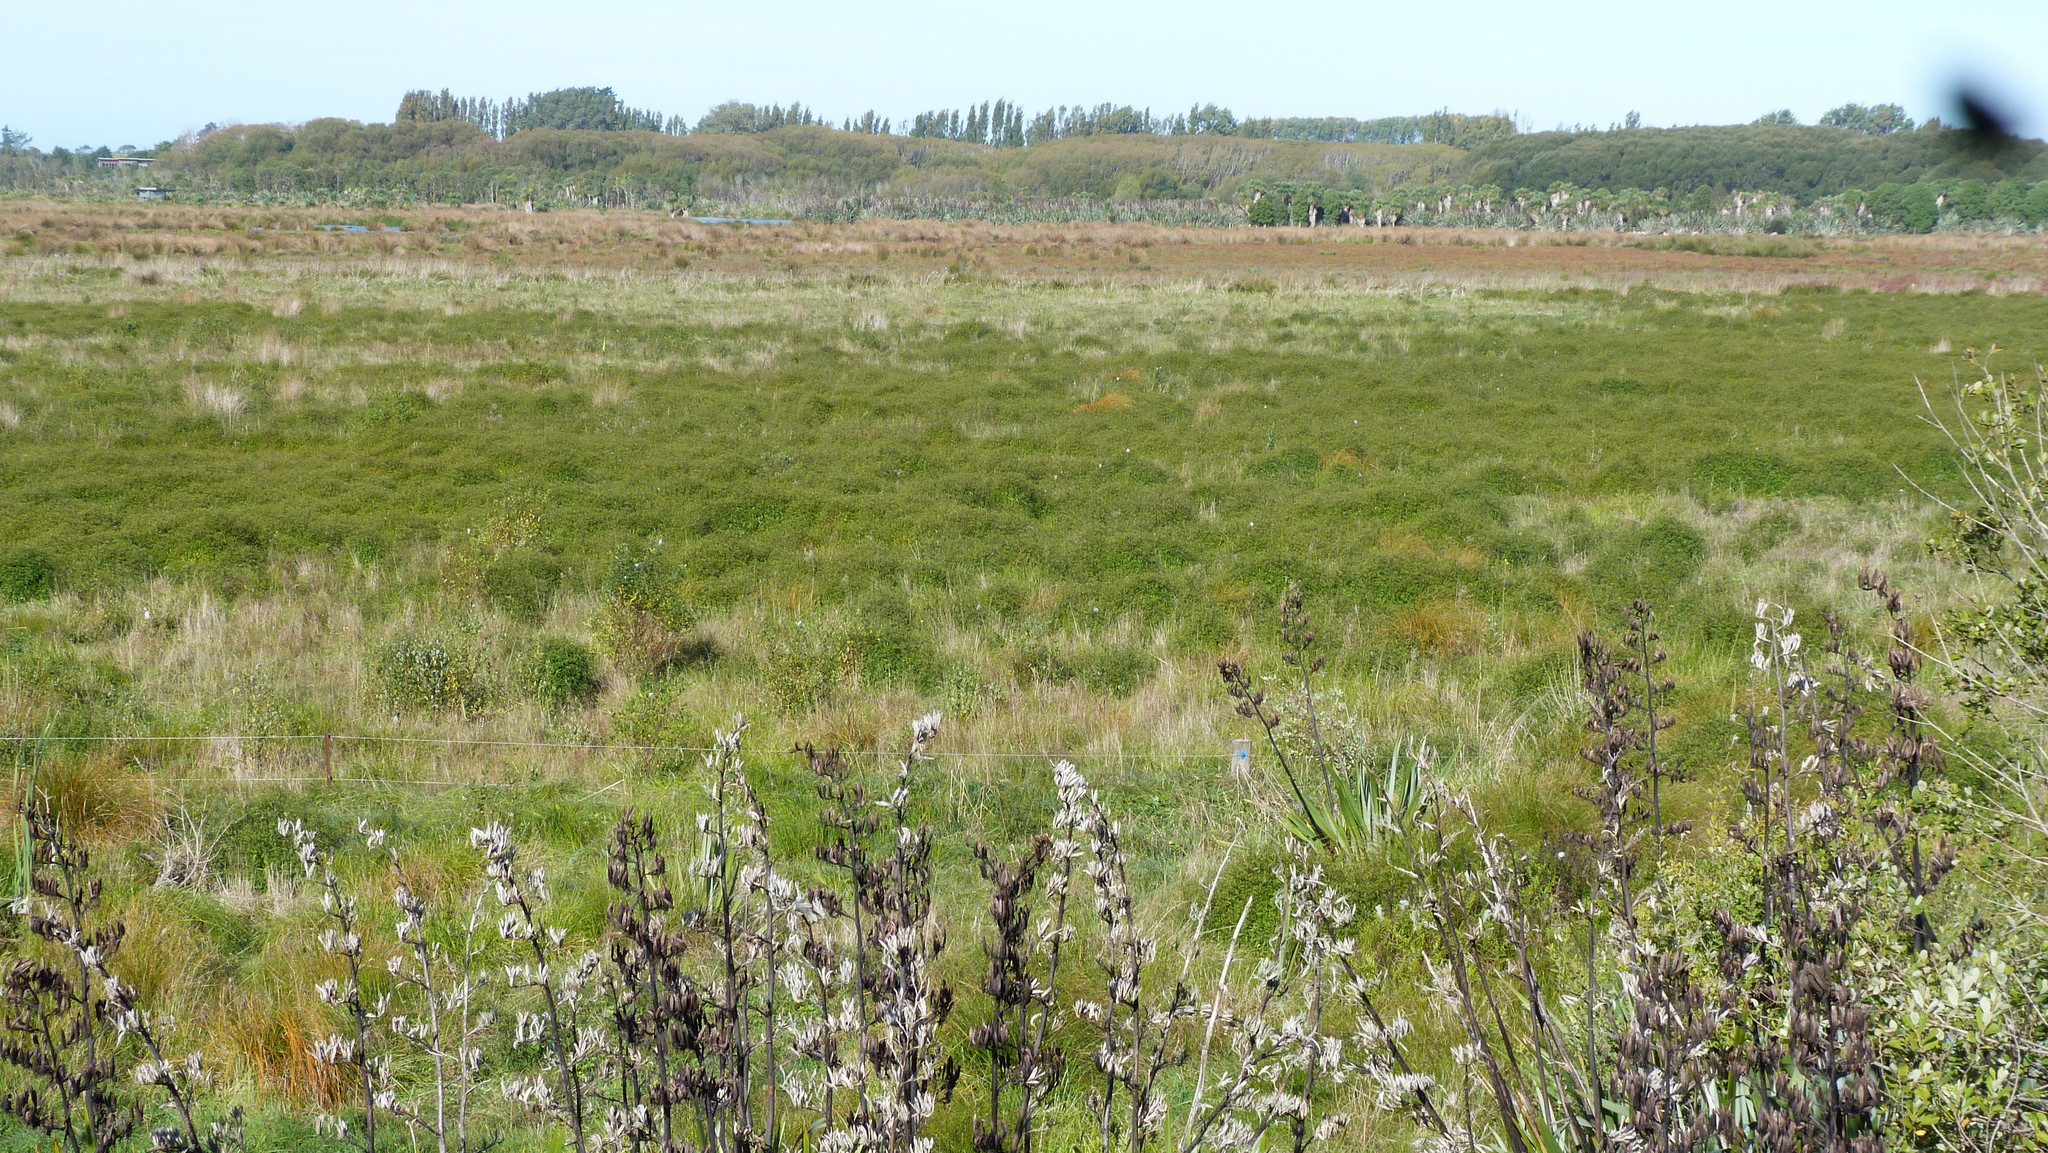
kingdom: Plantae
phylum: Tracheophyta
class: Magnoliopsida
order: Asterales
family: Asteraceae
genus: Bidens
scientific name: Bidens frondosa
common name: Beggarticks
